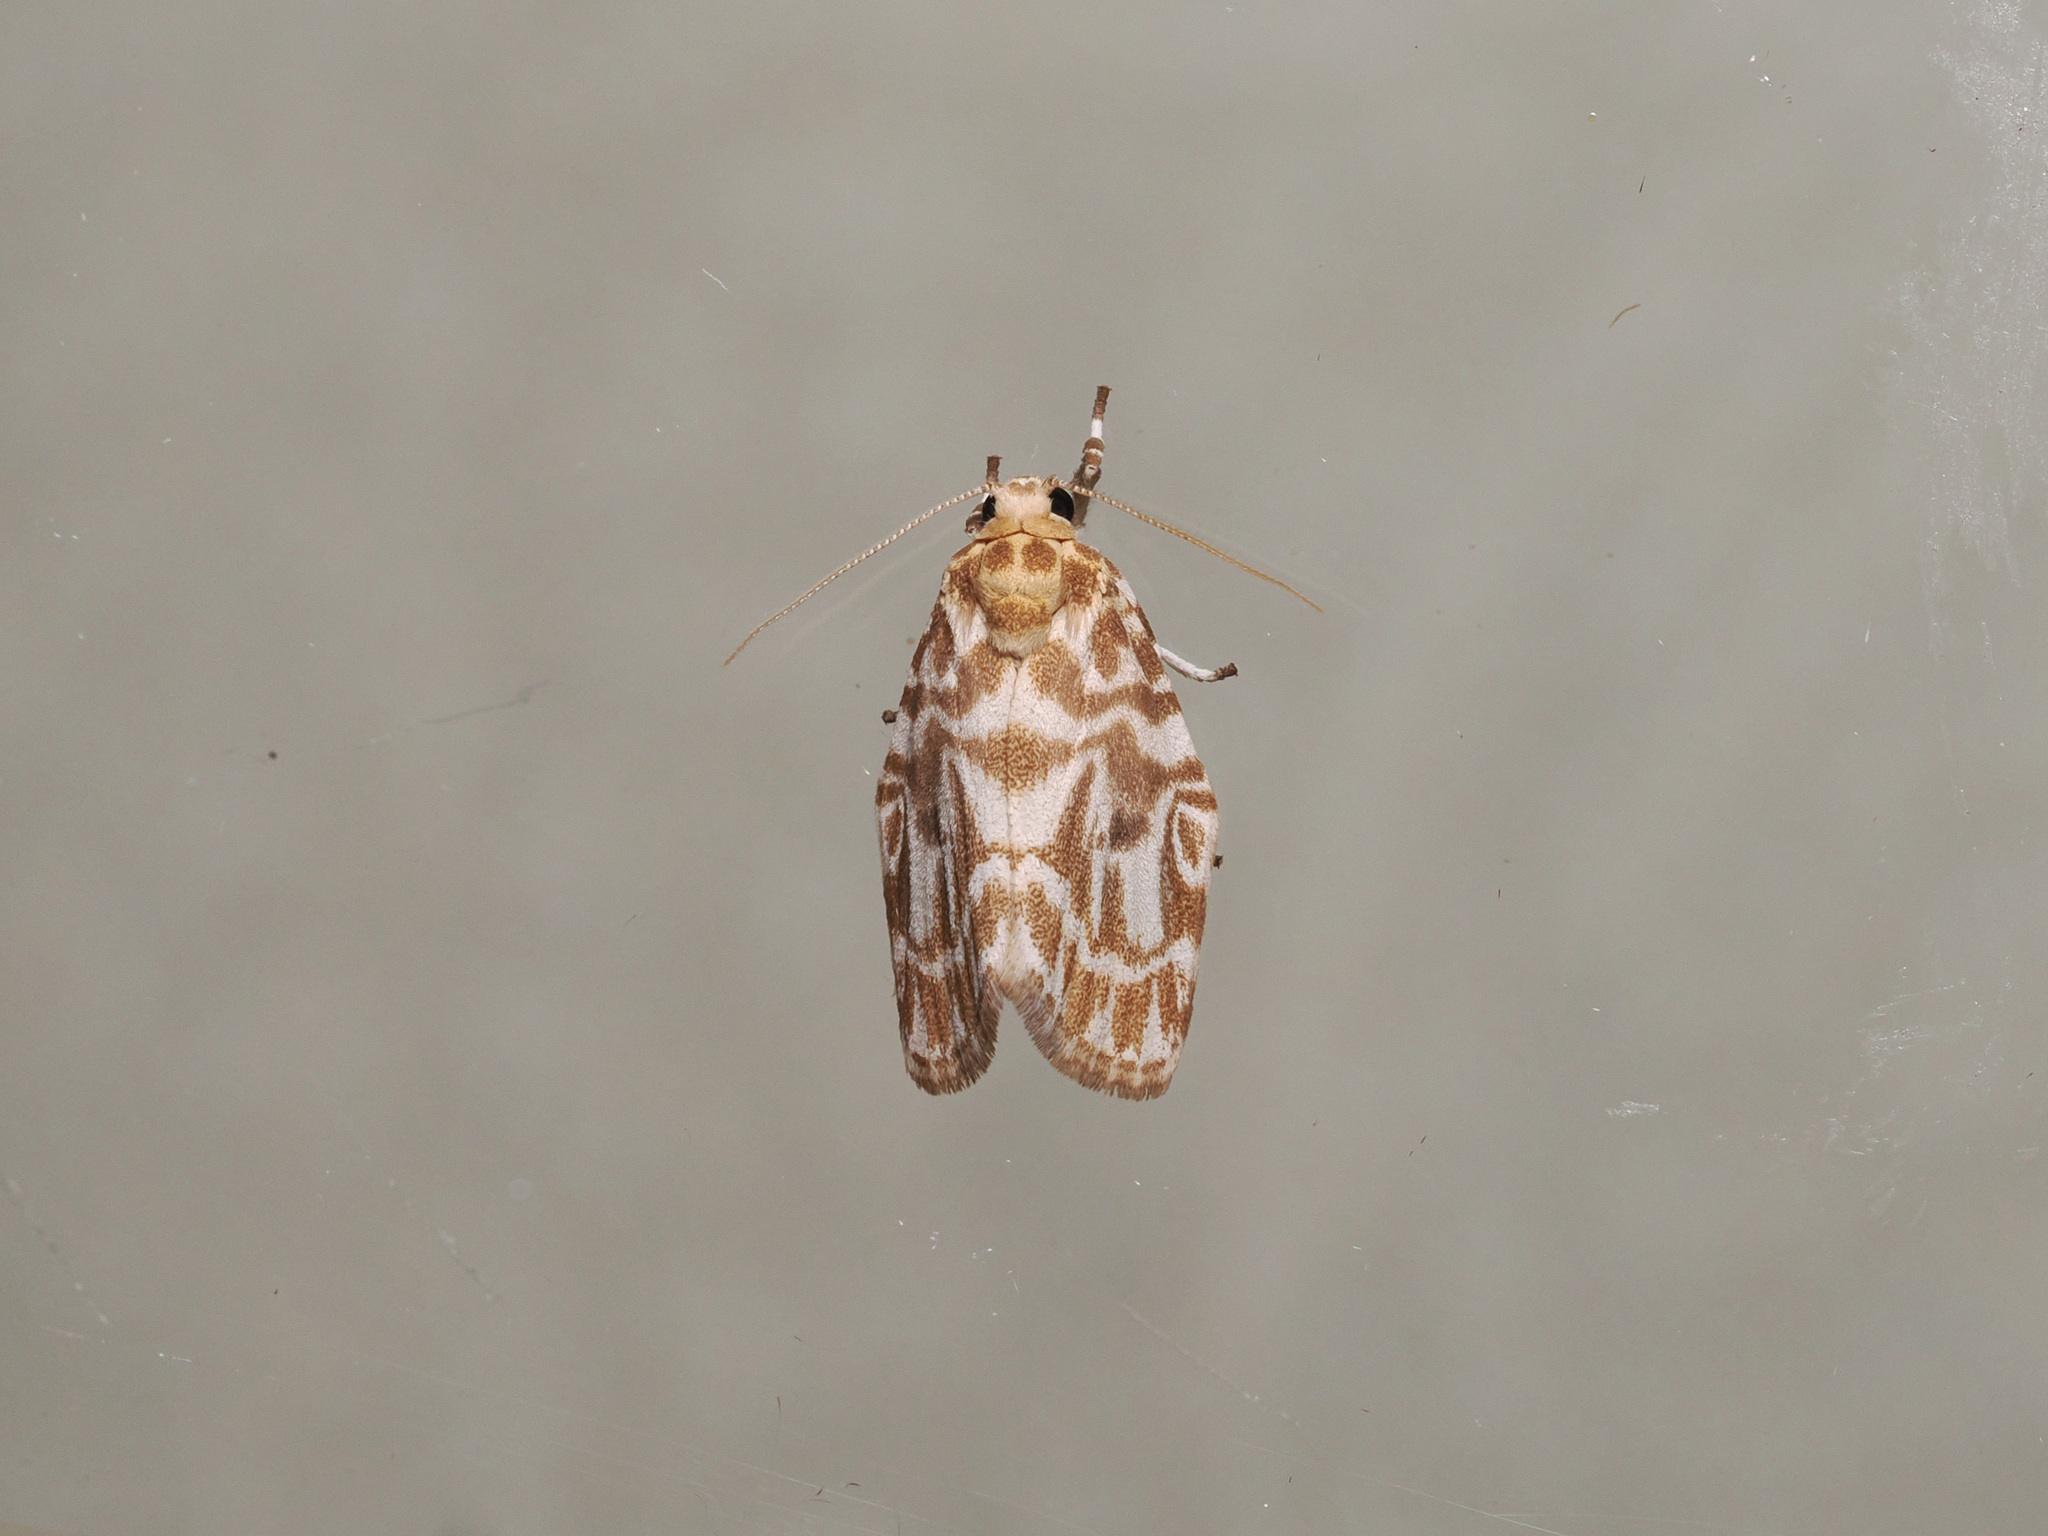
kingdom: Animalia
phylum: Arthropoda
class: Insecta
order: Lepidoptera
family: Erebidae
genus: Cabarda
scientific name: Cabarda sequens
